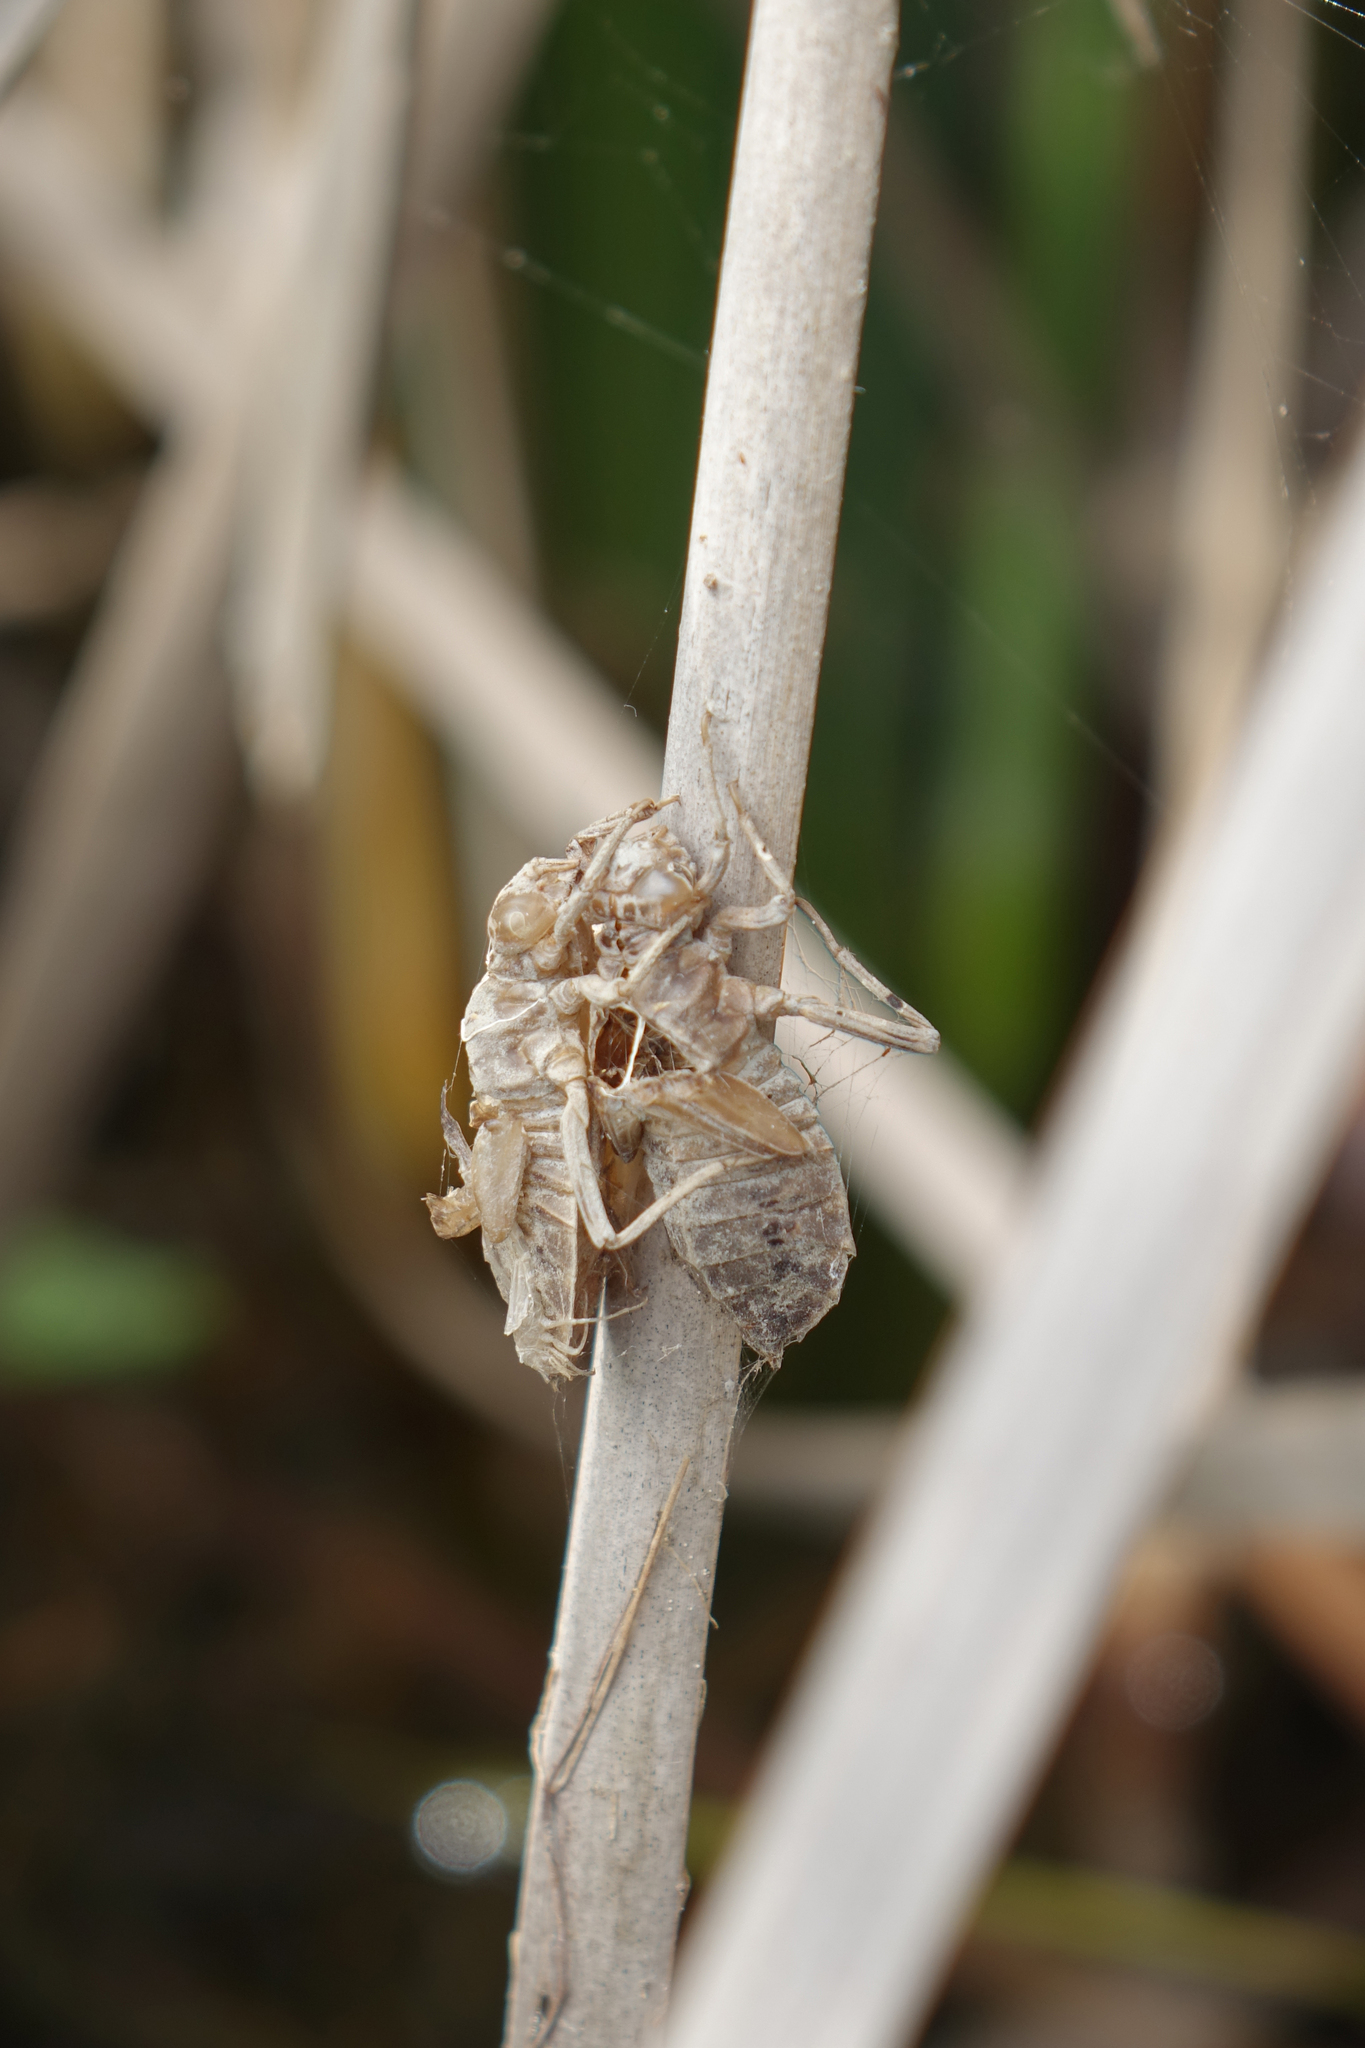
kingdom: Animalia
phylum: Arthropoda
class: Insecta
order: Odonata
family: Gomphidae
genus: Lindenia
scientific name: Lindenia tetraphylla
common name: Bladetail
